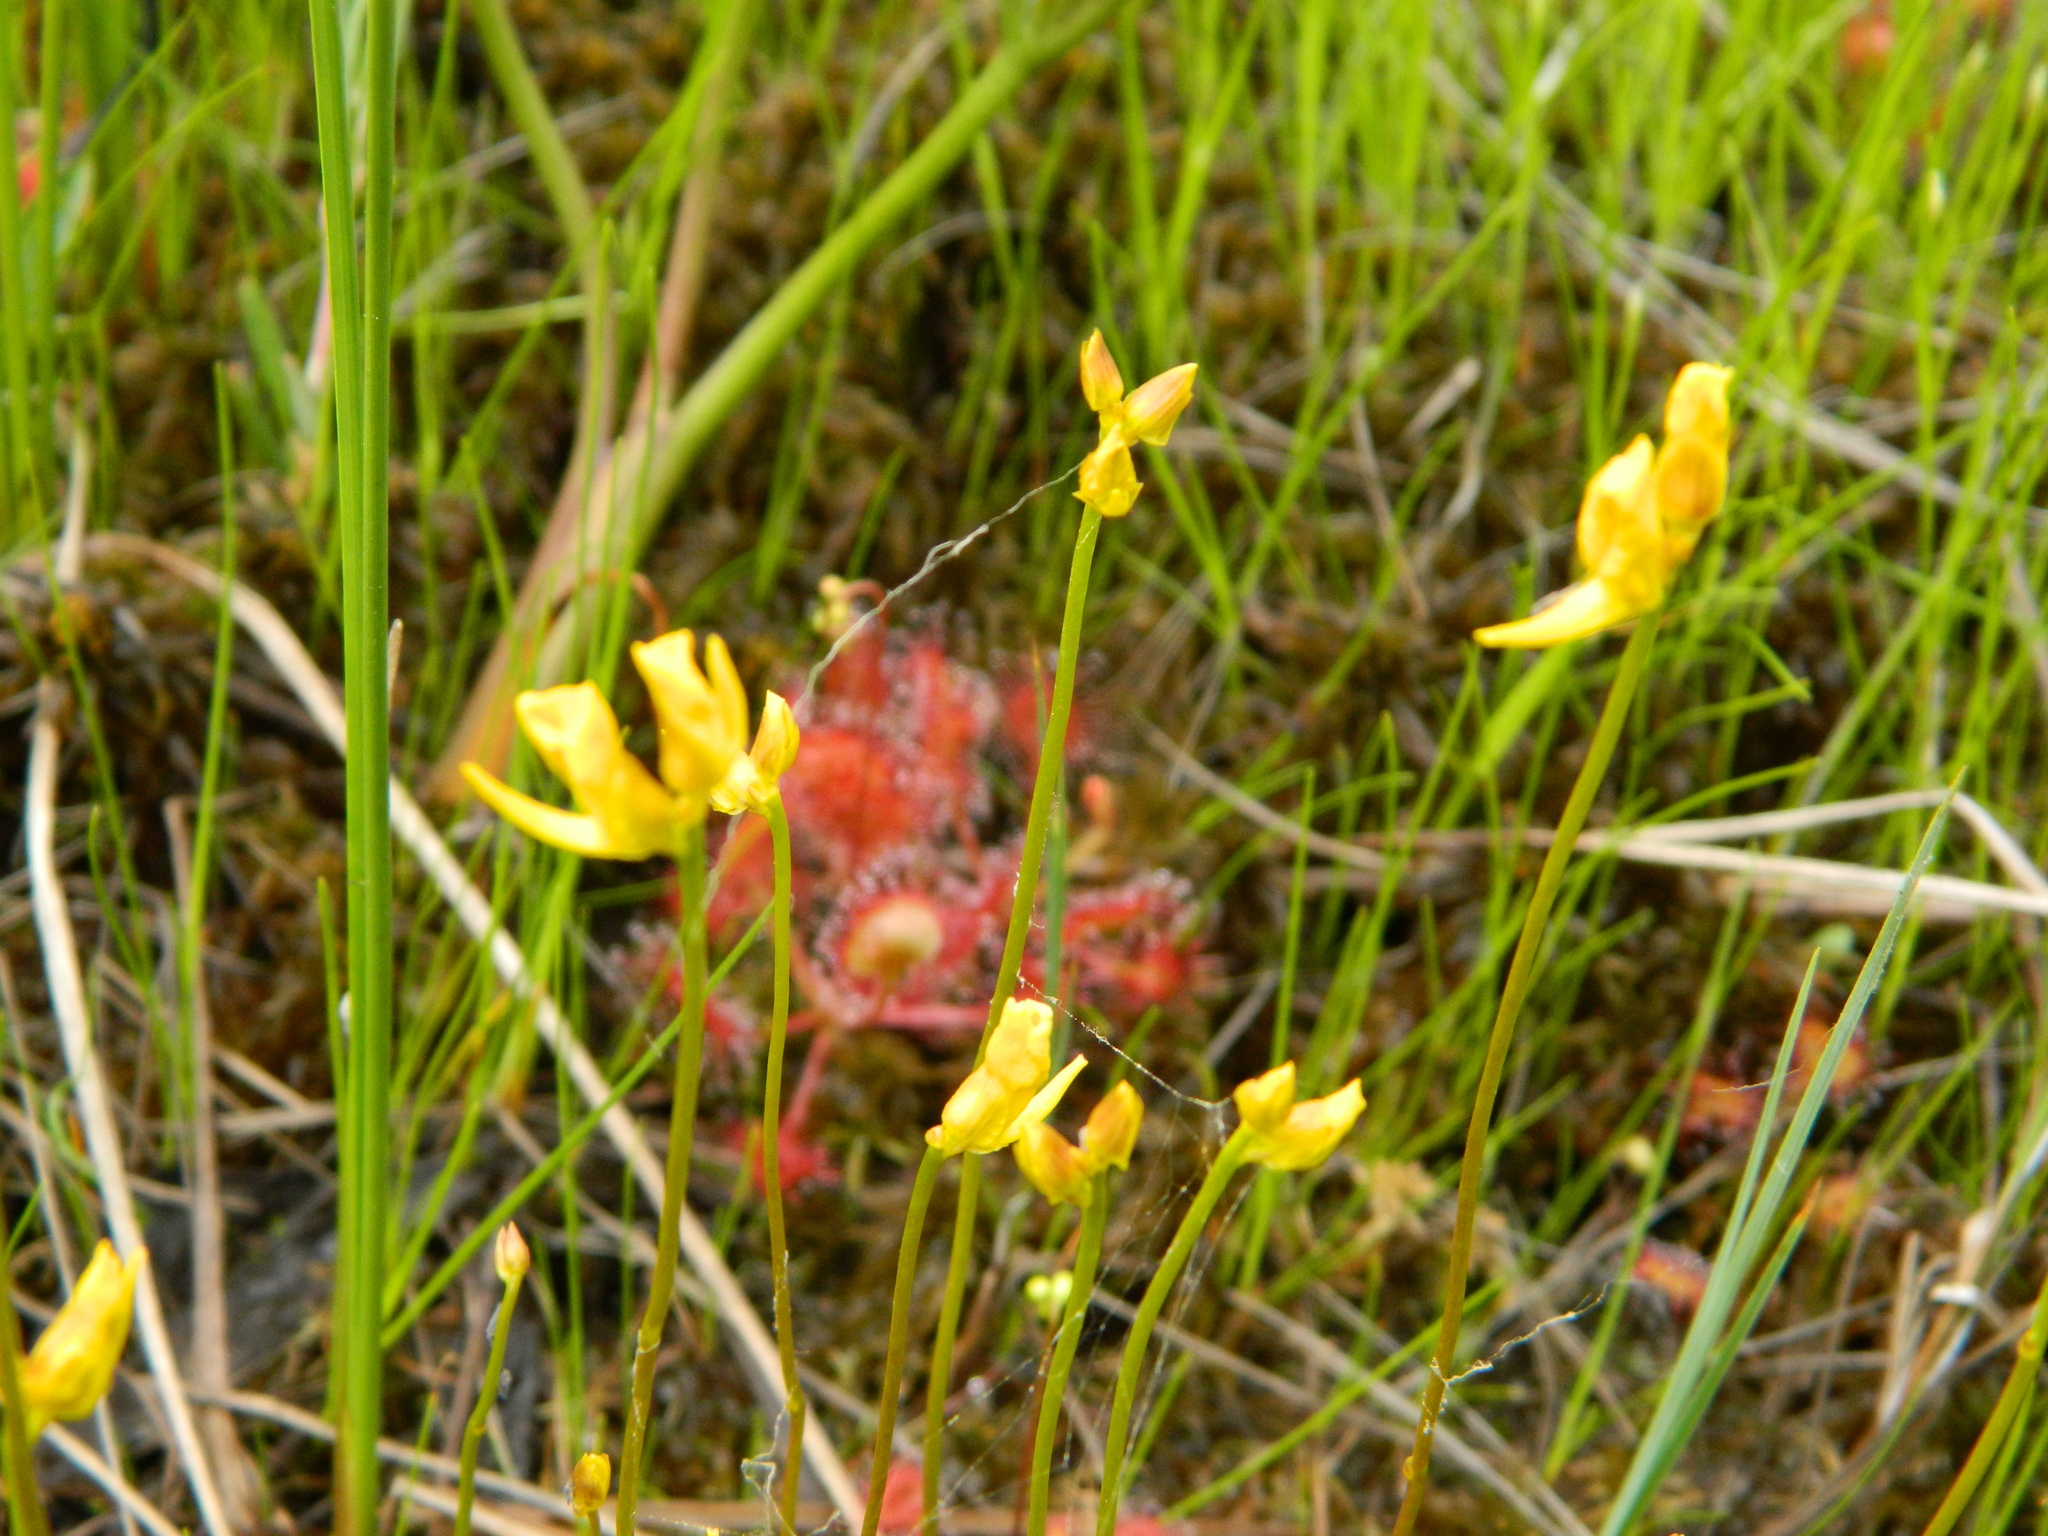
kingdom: Plantae
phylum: Tracheophyta
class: Magnoliopsida
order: Lamiales
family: Lentibulariaceae
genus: Utricularia
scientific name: Utricularia cornuta
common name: Horned bladderwort
